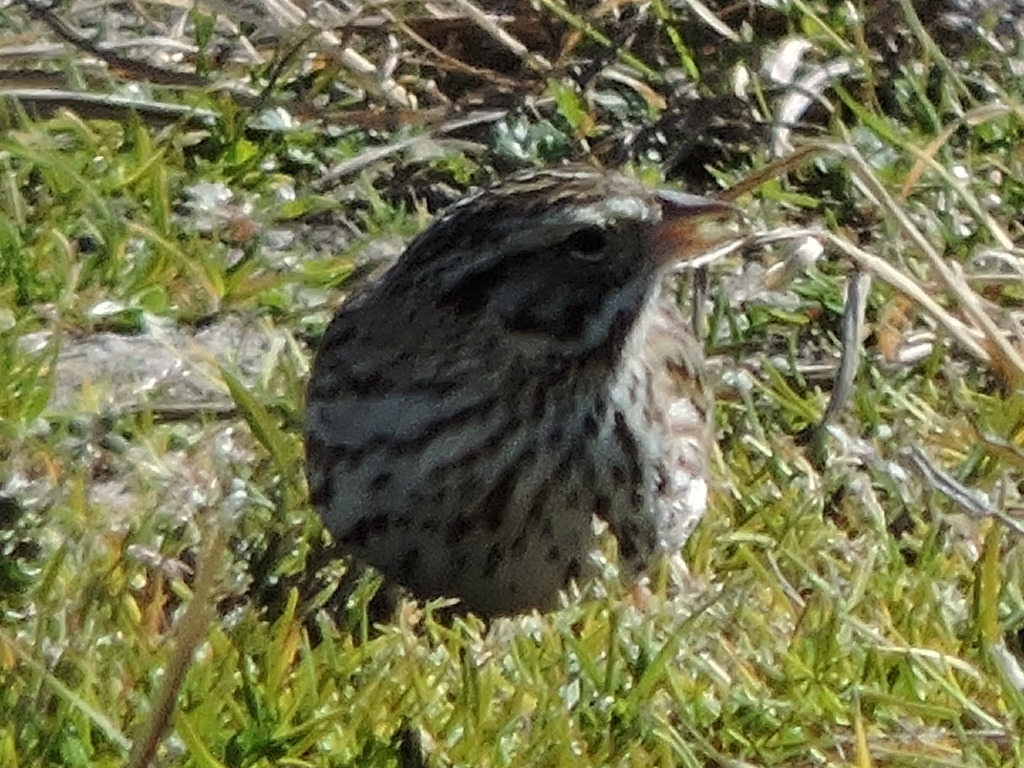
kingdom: Animalia
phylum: Chordata
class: Aves
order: Passeriformes
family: Passerellidae
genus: Passerculus
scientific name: Passerculus sandwichensis
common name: Savannah sparrow
